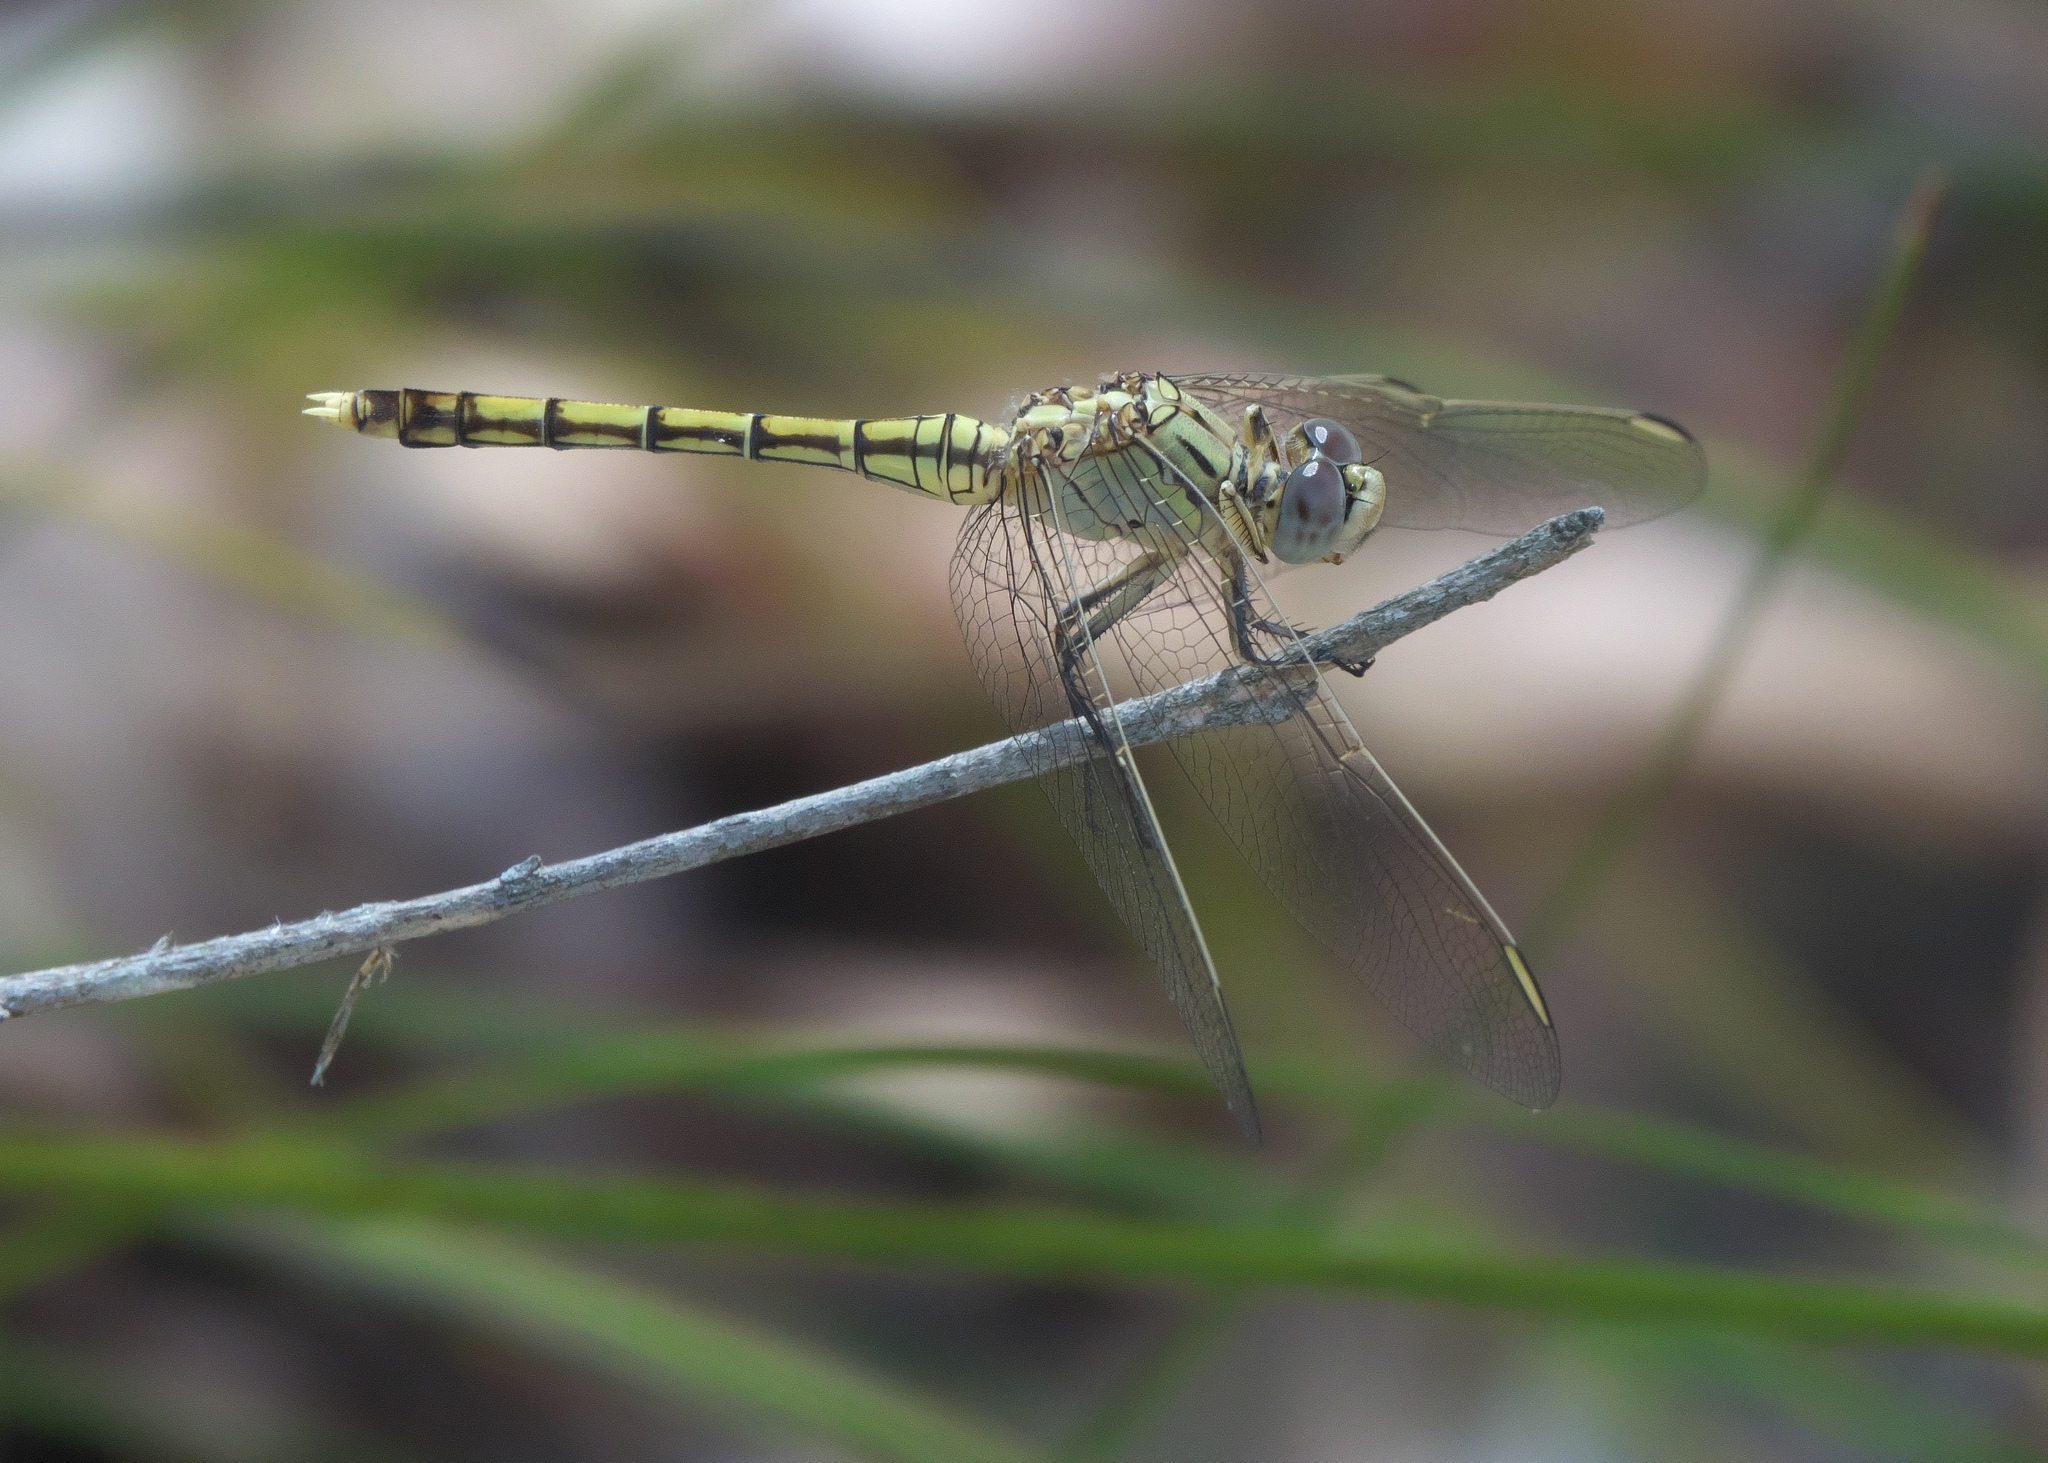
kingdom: Animalia
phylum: Arthropoda
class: Insecta
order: Odonata
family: Libellulidae
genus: Orthetrum
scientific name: Orthetrum caledonicum
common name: Blue skimmer
